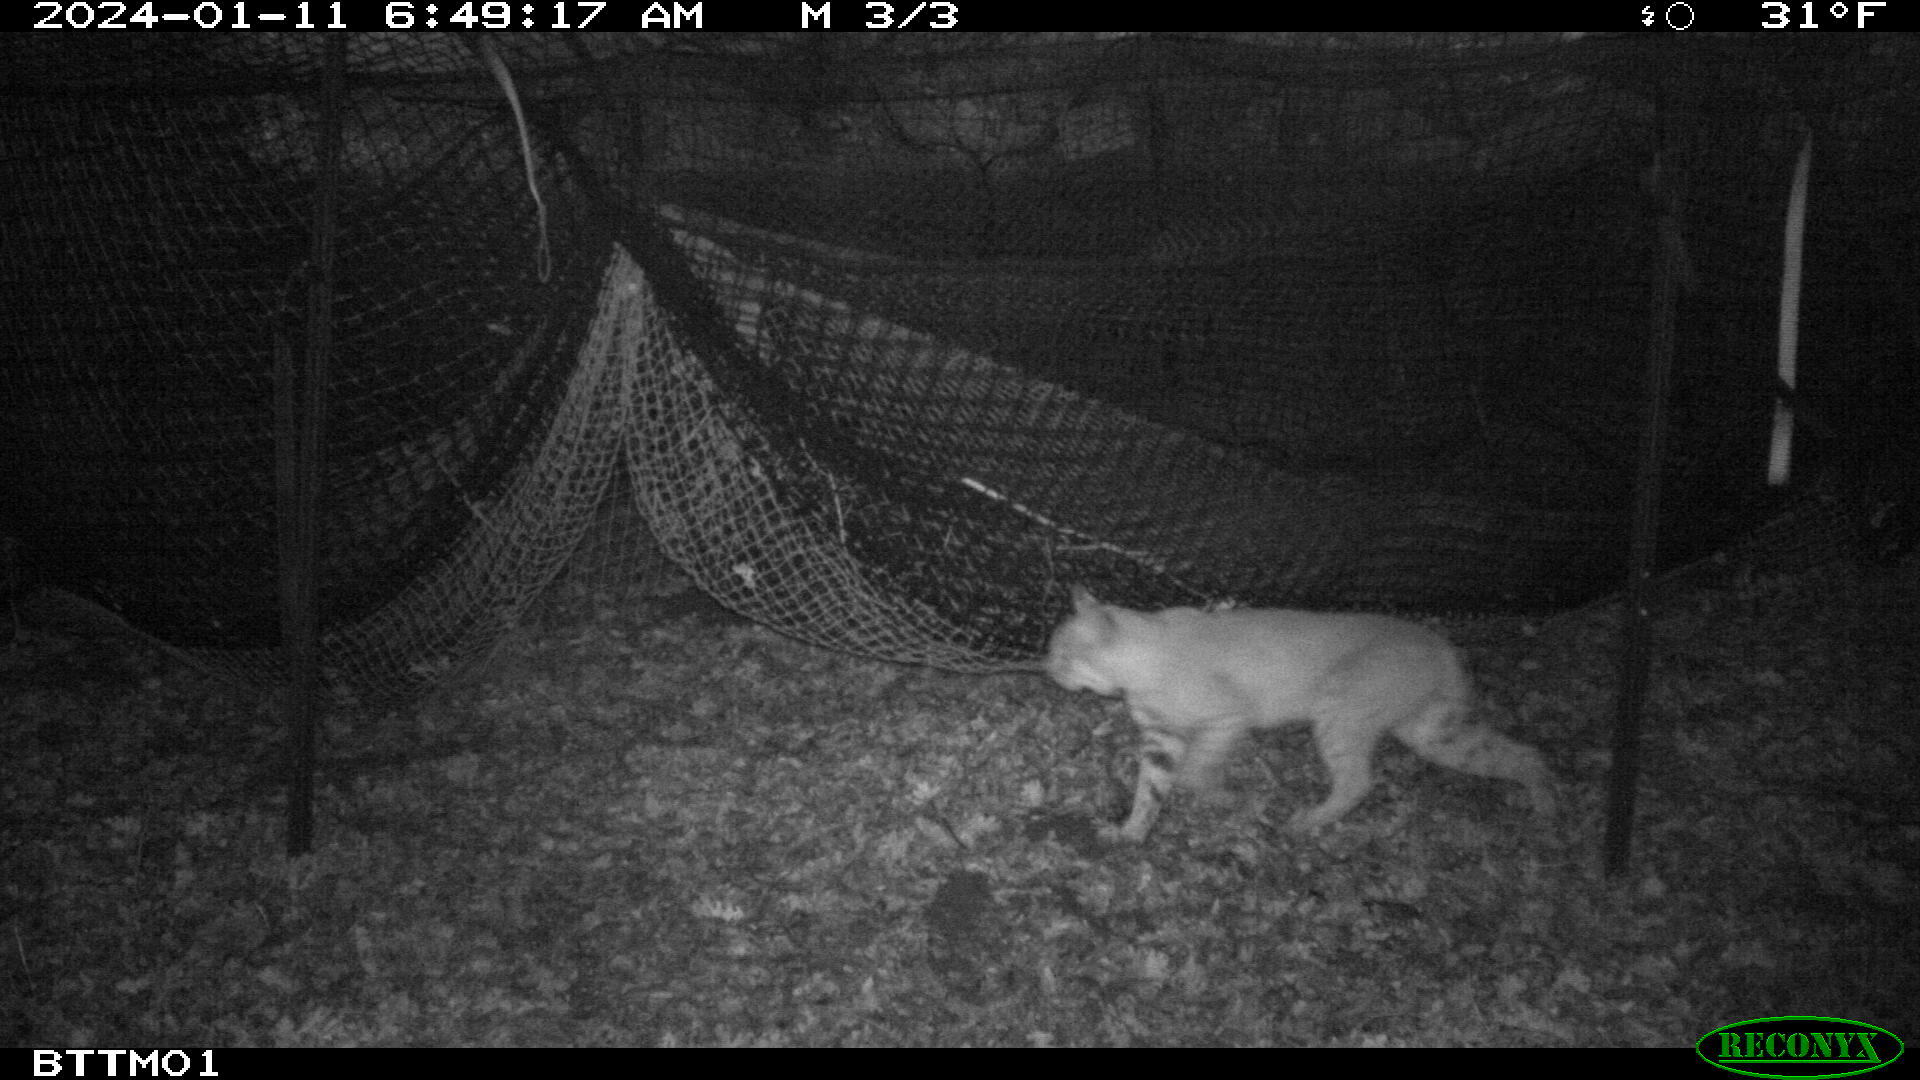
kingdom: Animalia
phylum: Chordata
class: Mammalia
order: Carnivora
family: Felidae
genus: Lynx
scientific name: Lynx rufus
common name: Bobcat
